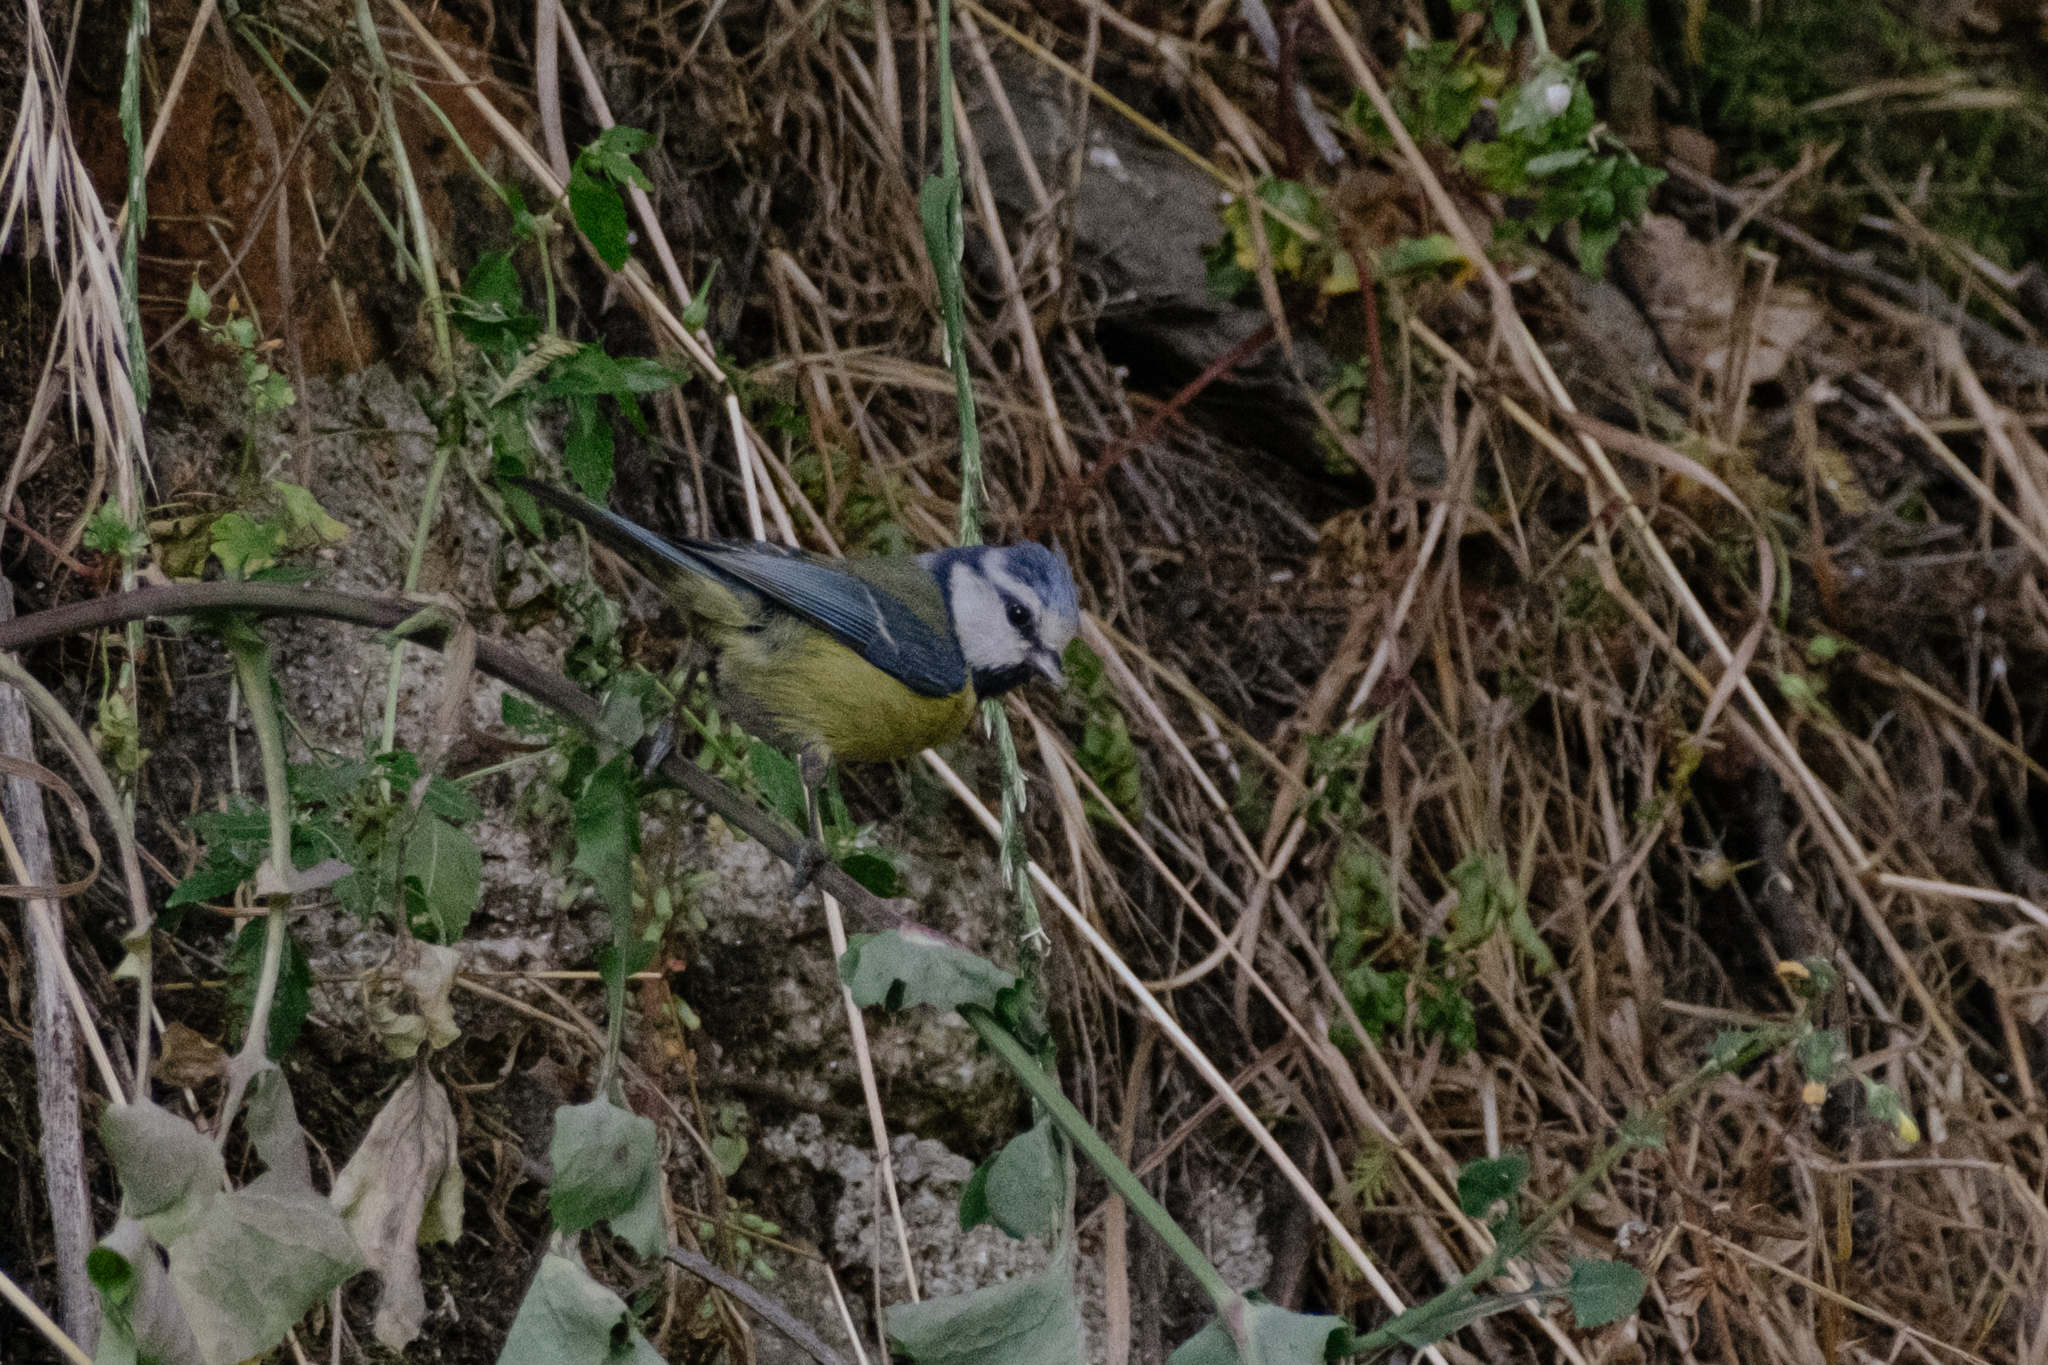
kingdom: Animalia
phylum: Chordata
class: Aves
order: Passeriformes
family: Paridae
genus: Cyanistes
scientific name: Cyanistes caeruleus
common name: Eurasian blue tit
